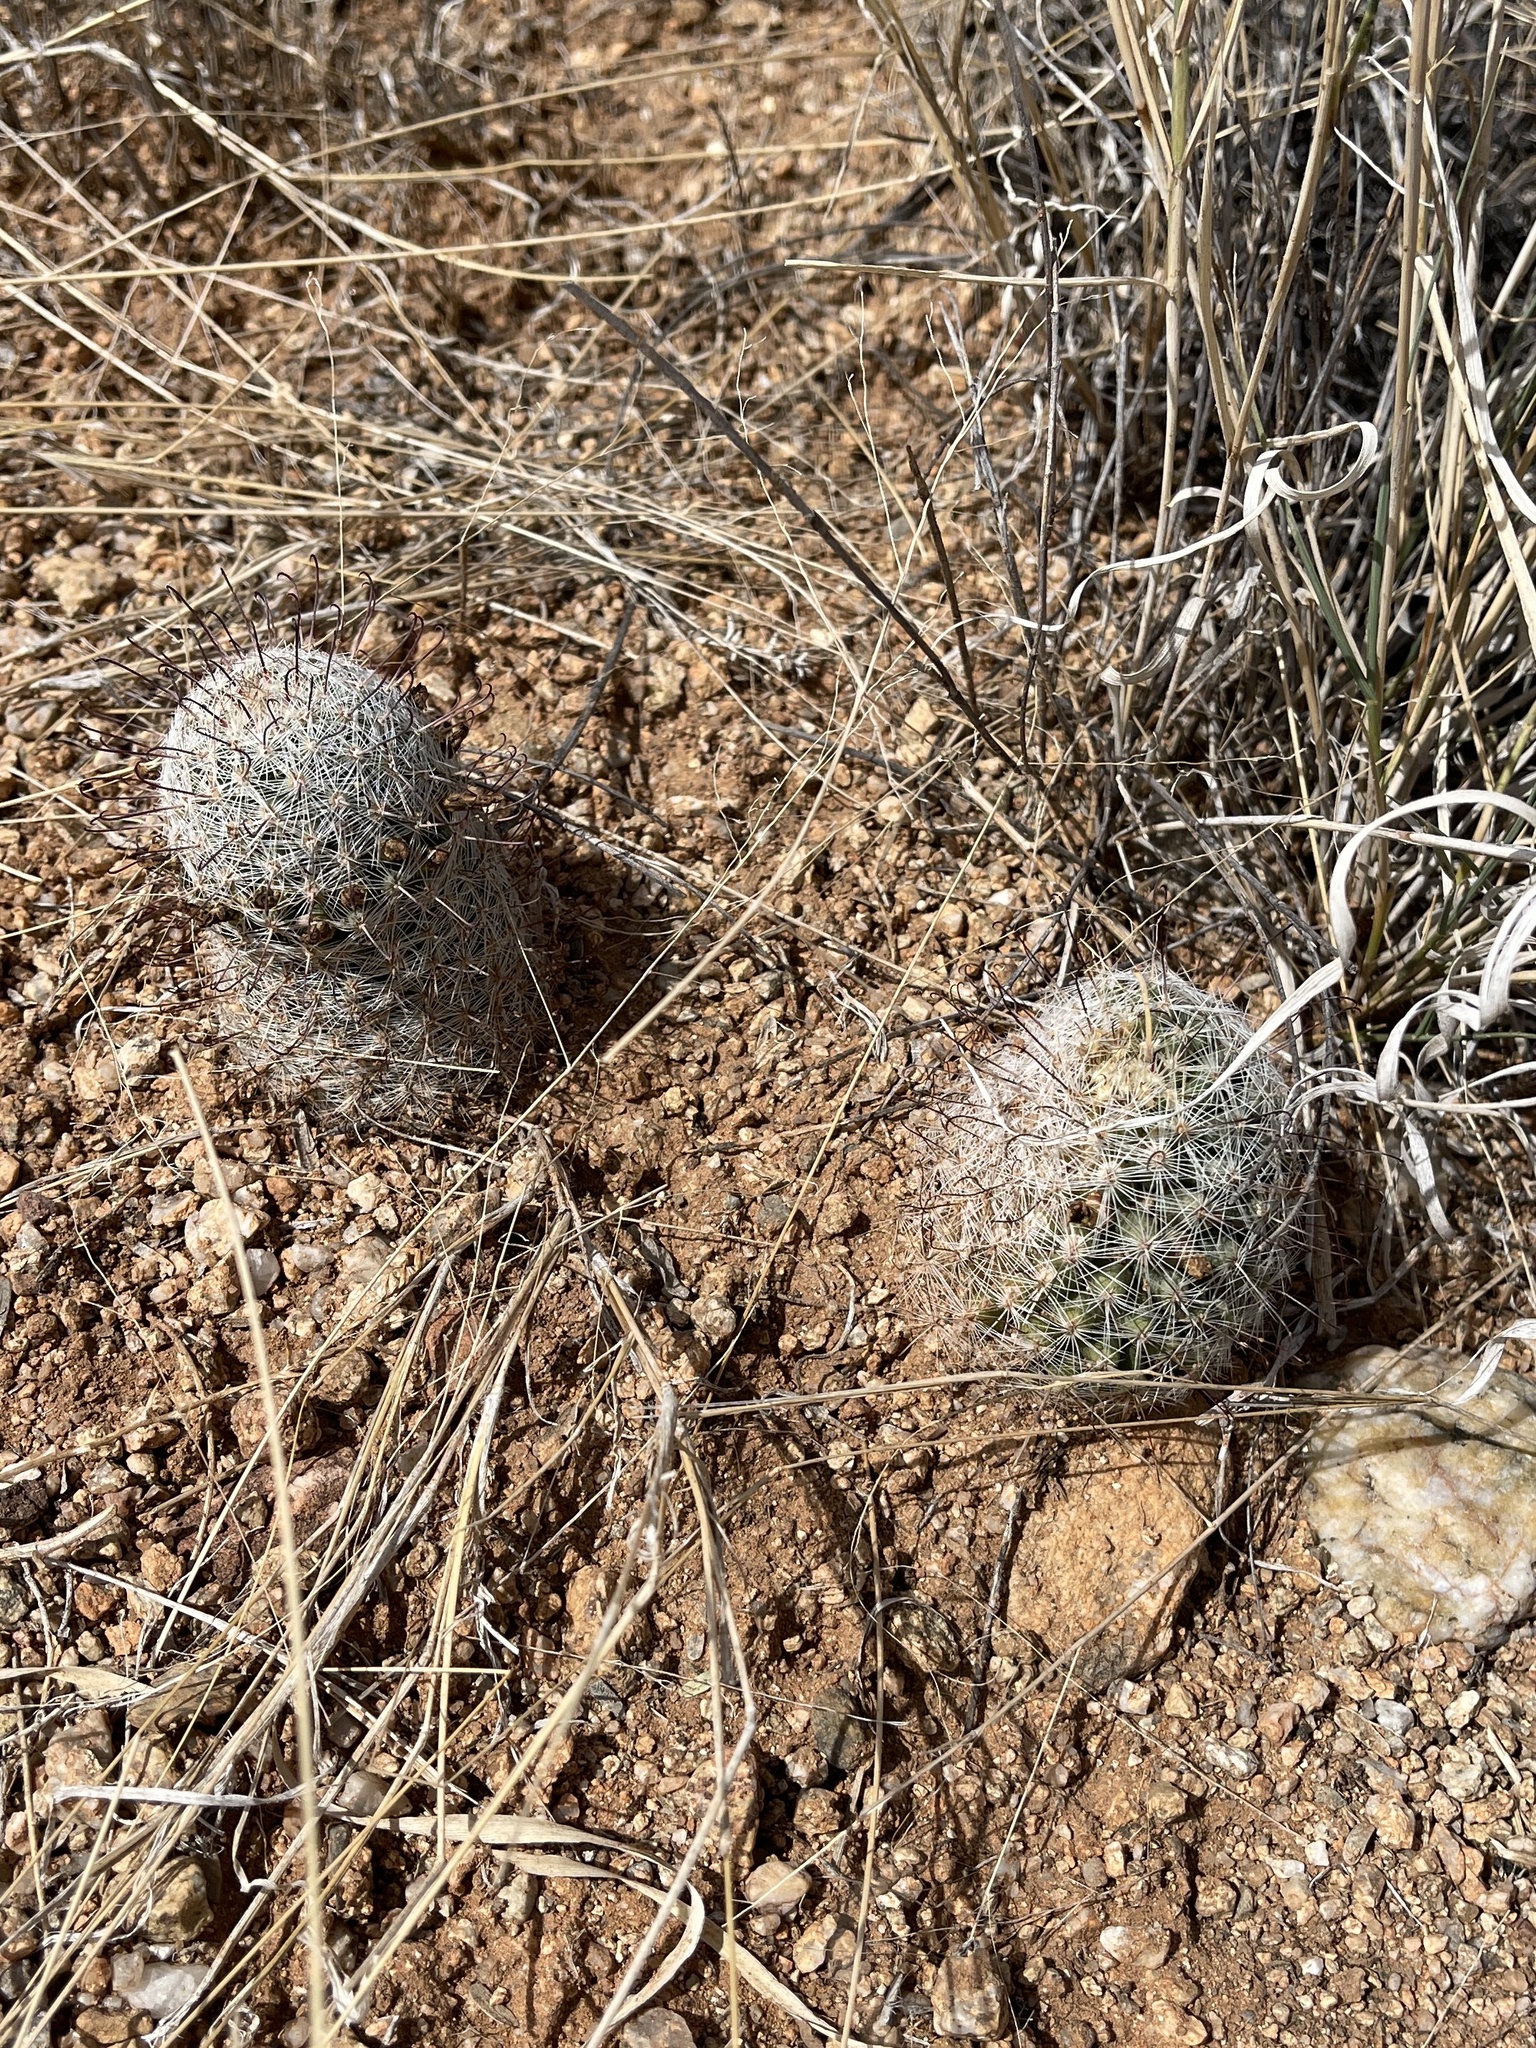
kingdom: Plantae
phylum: Tracheophyta
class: Magnoliopsida
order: Caryophyllales
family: Cactaceae
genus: Cochemiea
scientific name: Cochemiea grahamii
